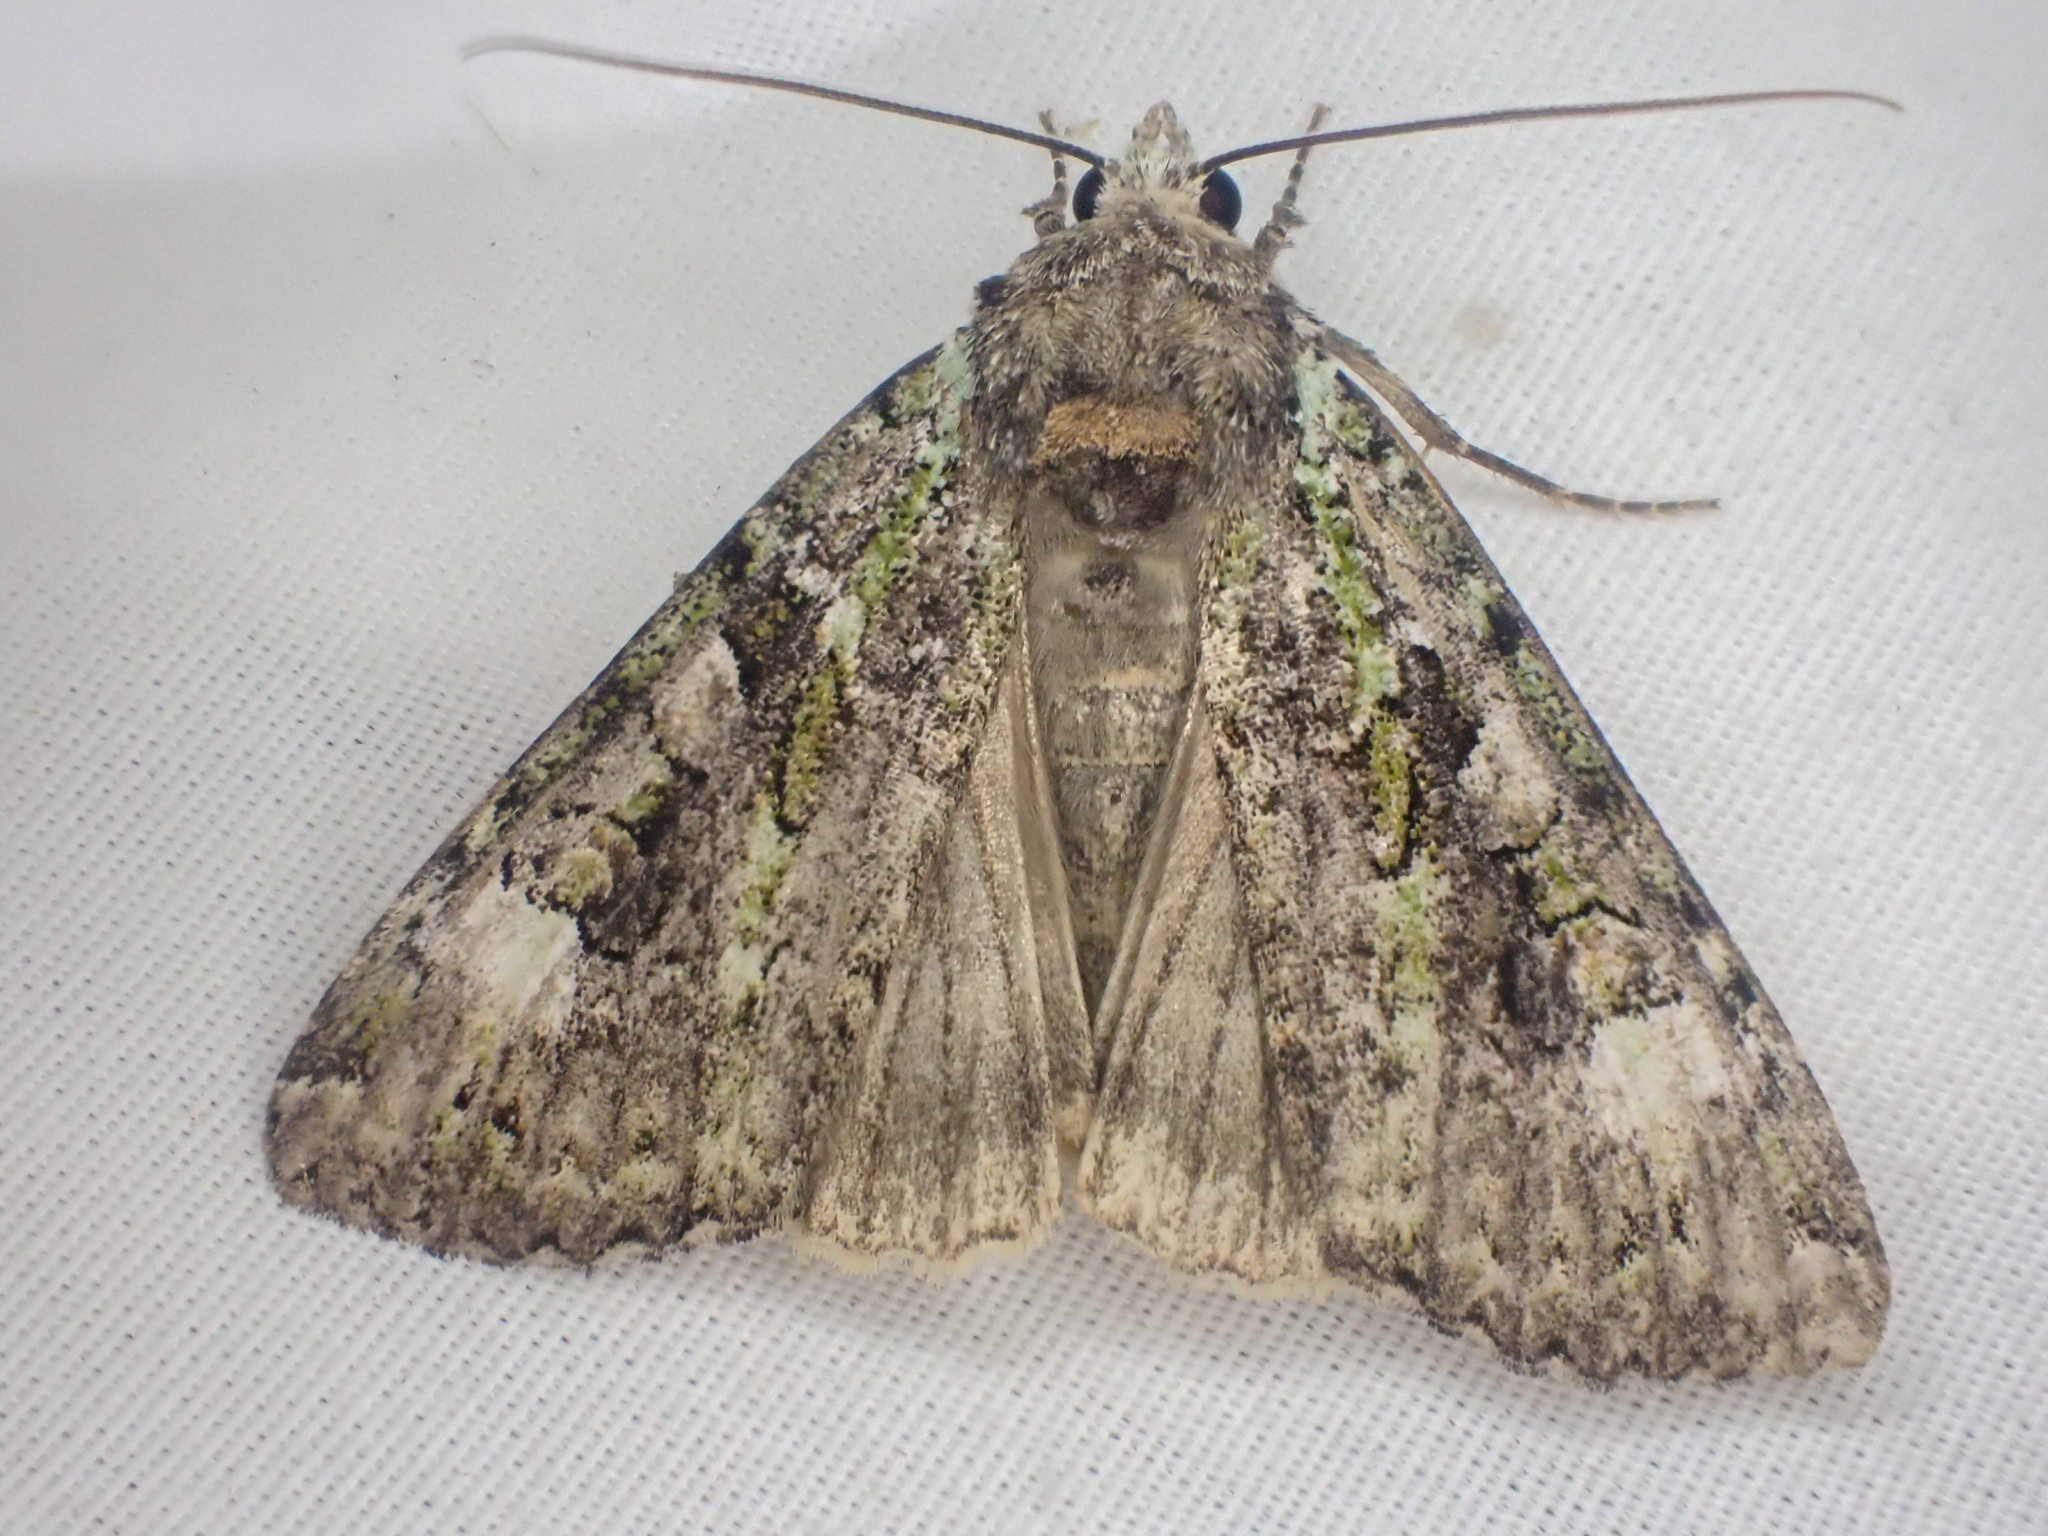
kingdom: Animalia
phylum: Arthropoda
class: Insecta
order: Lepidoptera
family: Noctuidae
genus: Anaplectoides
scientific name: Anaplectoides prasina
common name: Green arches
